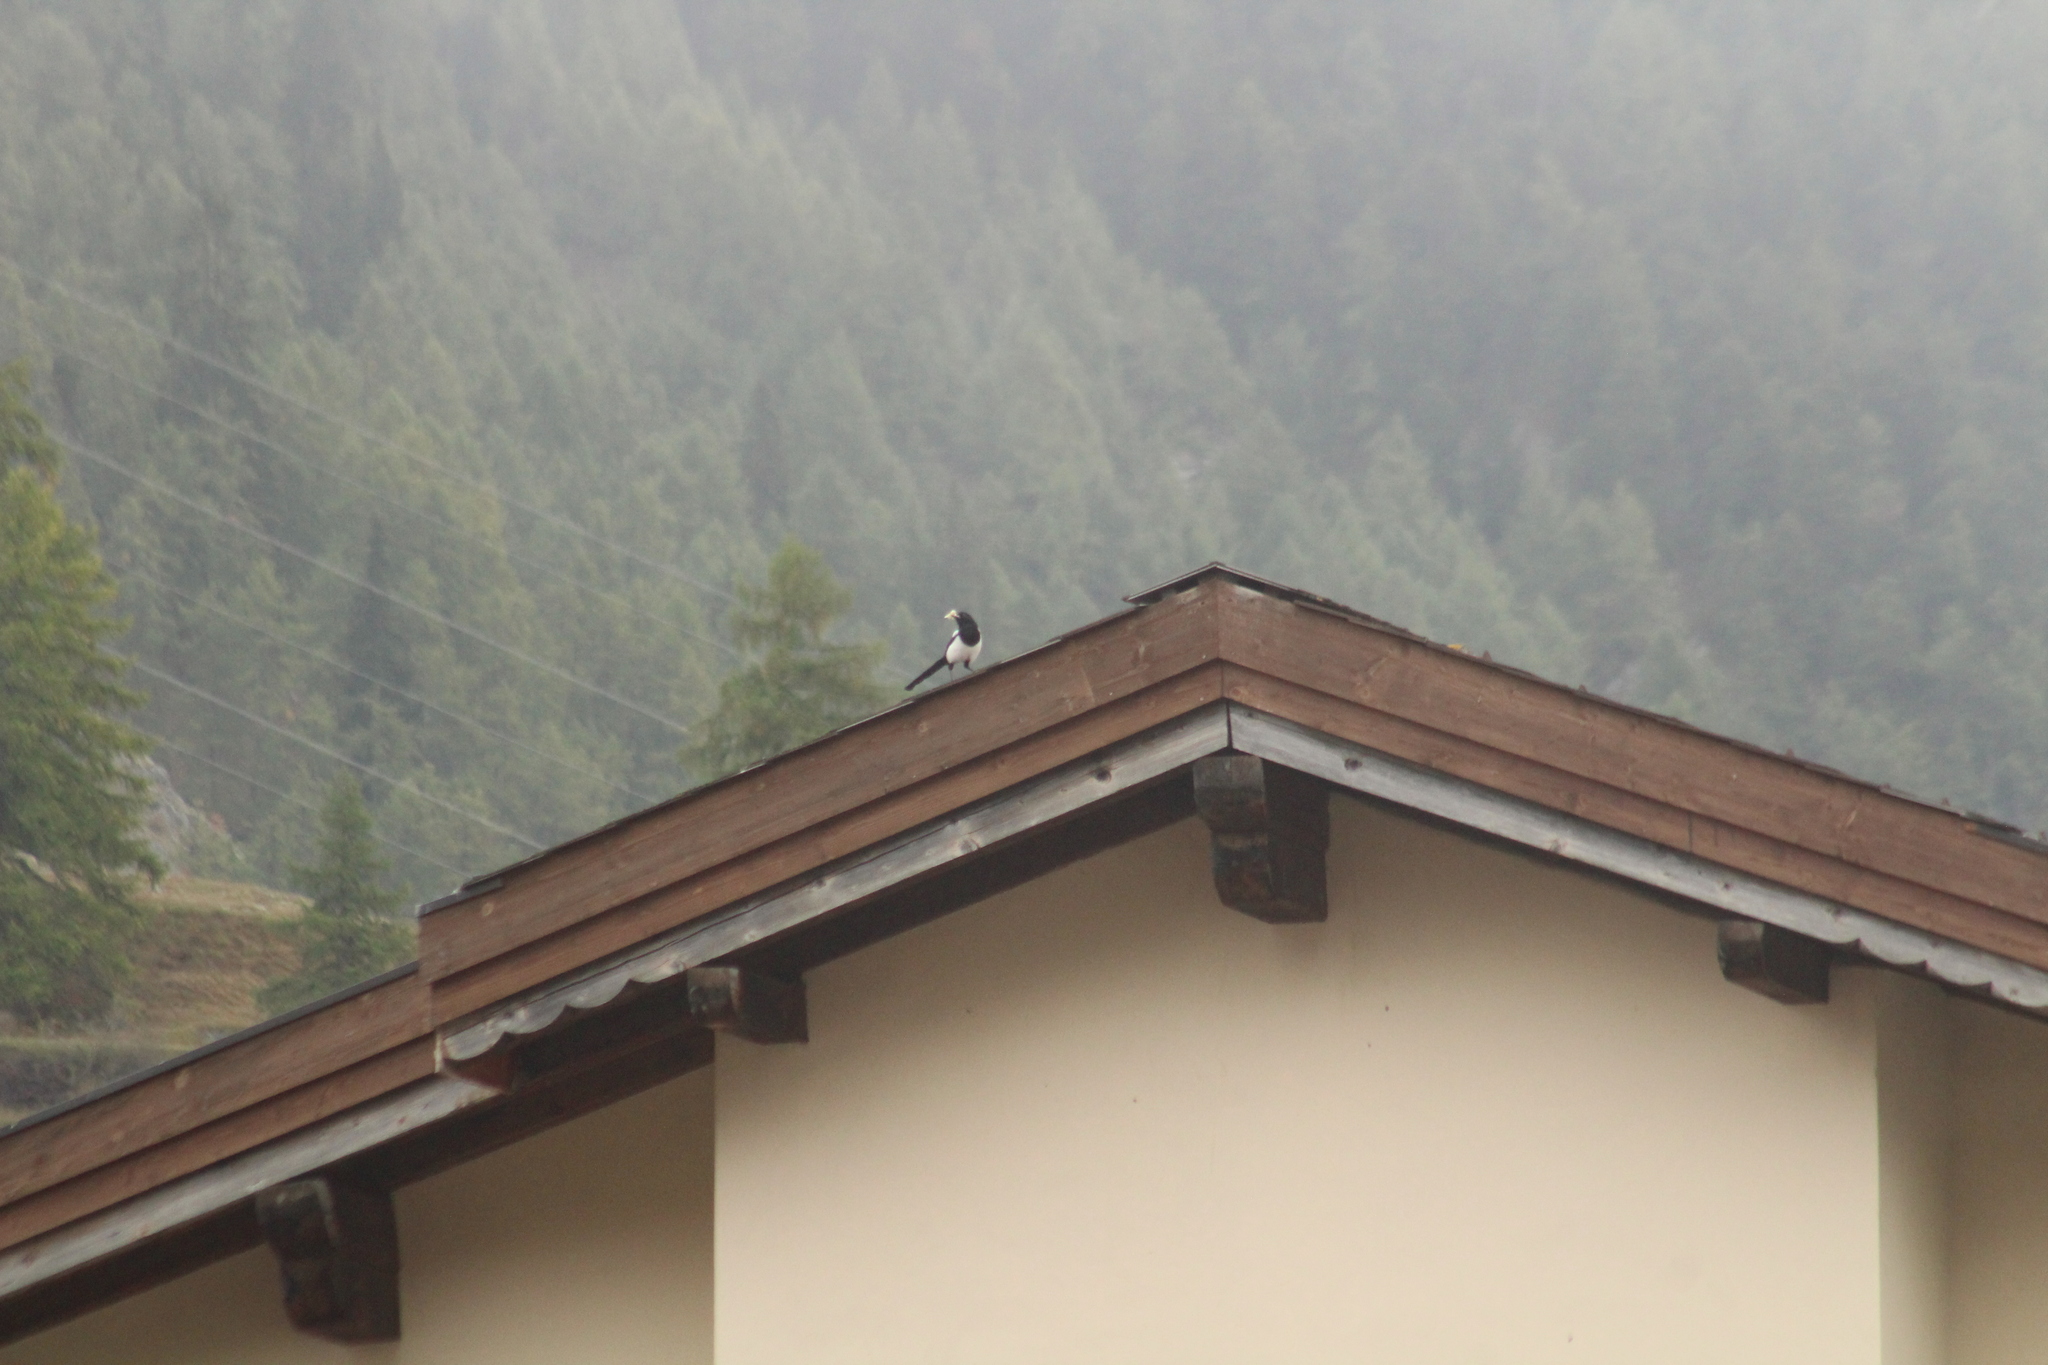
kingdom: Animalia
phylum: Chordata
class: Aves
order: Passeriformes
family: Corvidae
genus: Pica
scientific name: Pica pica
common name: Eurasian magpie
